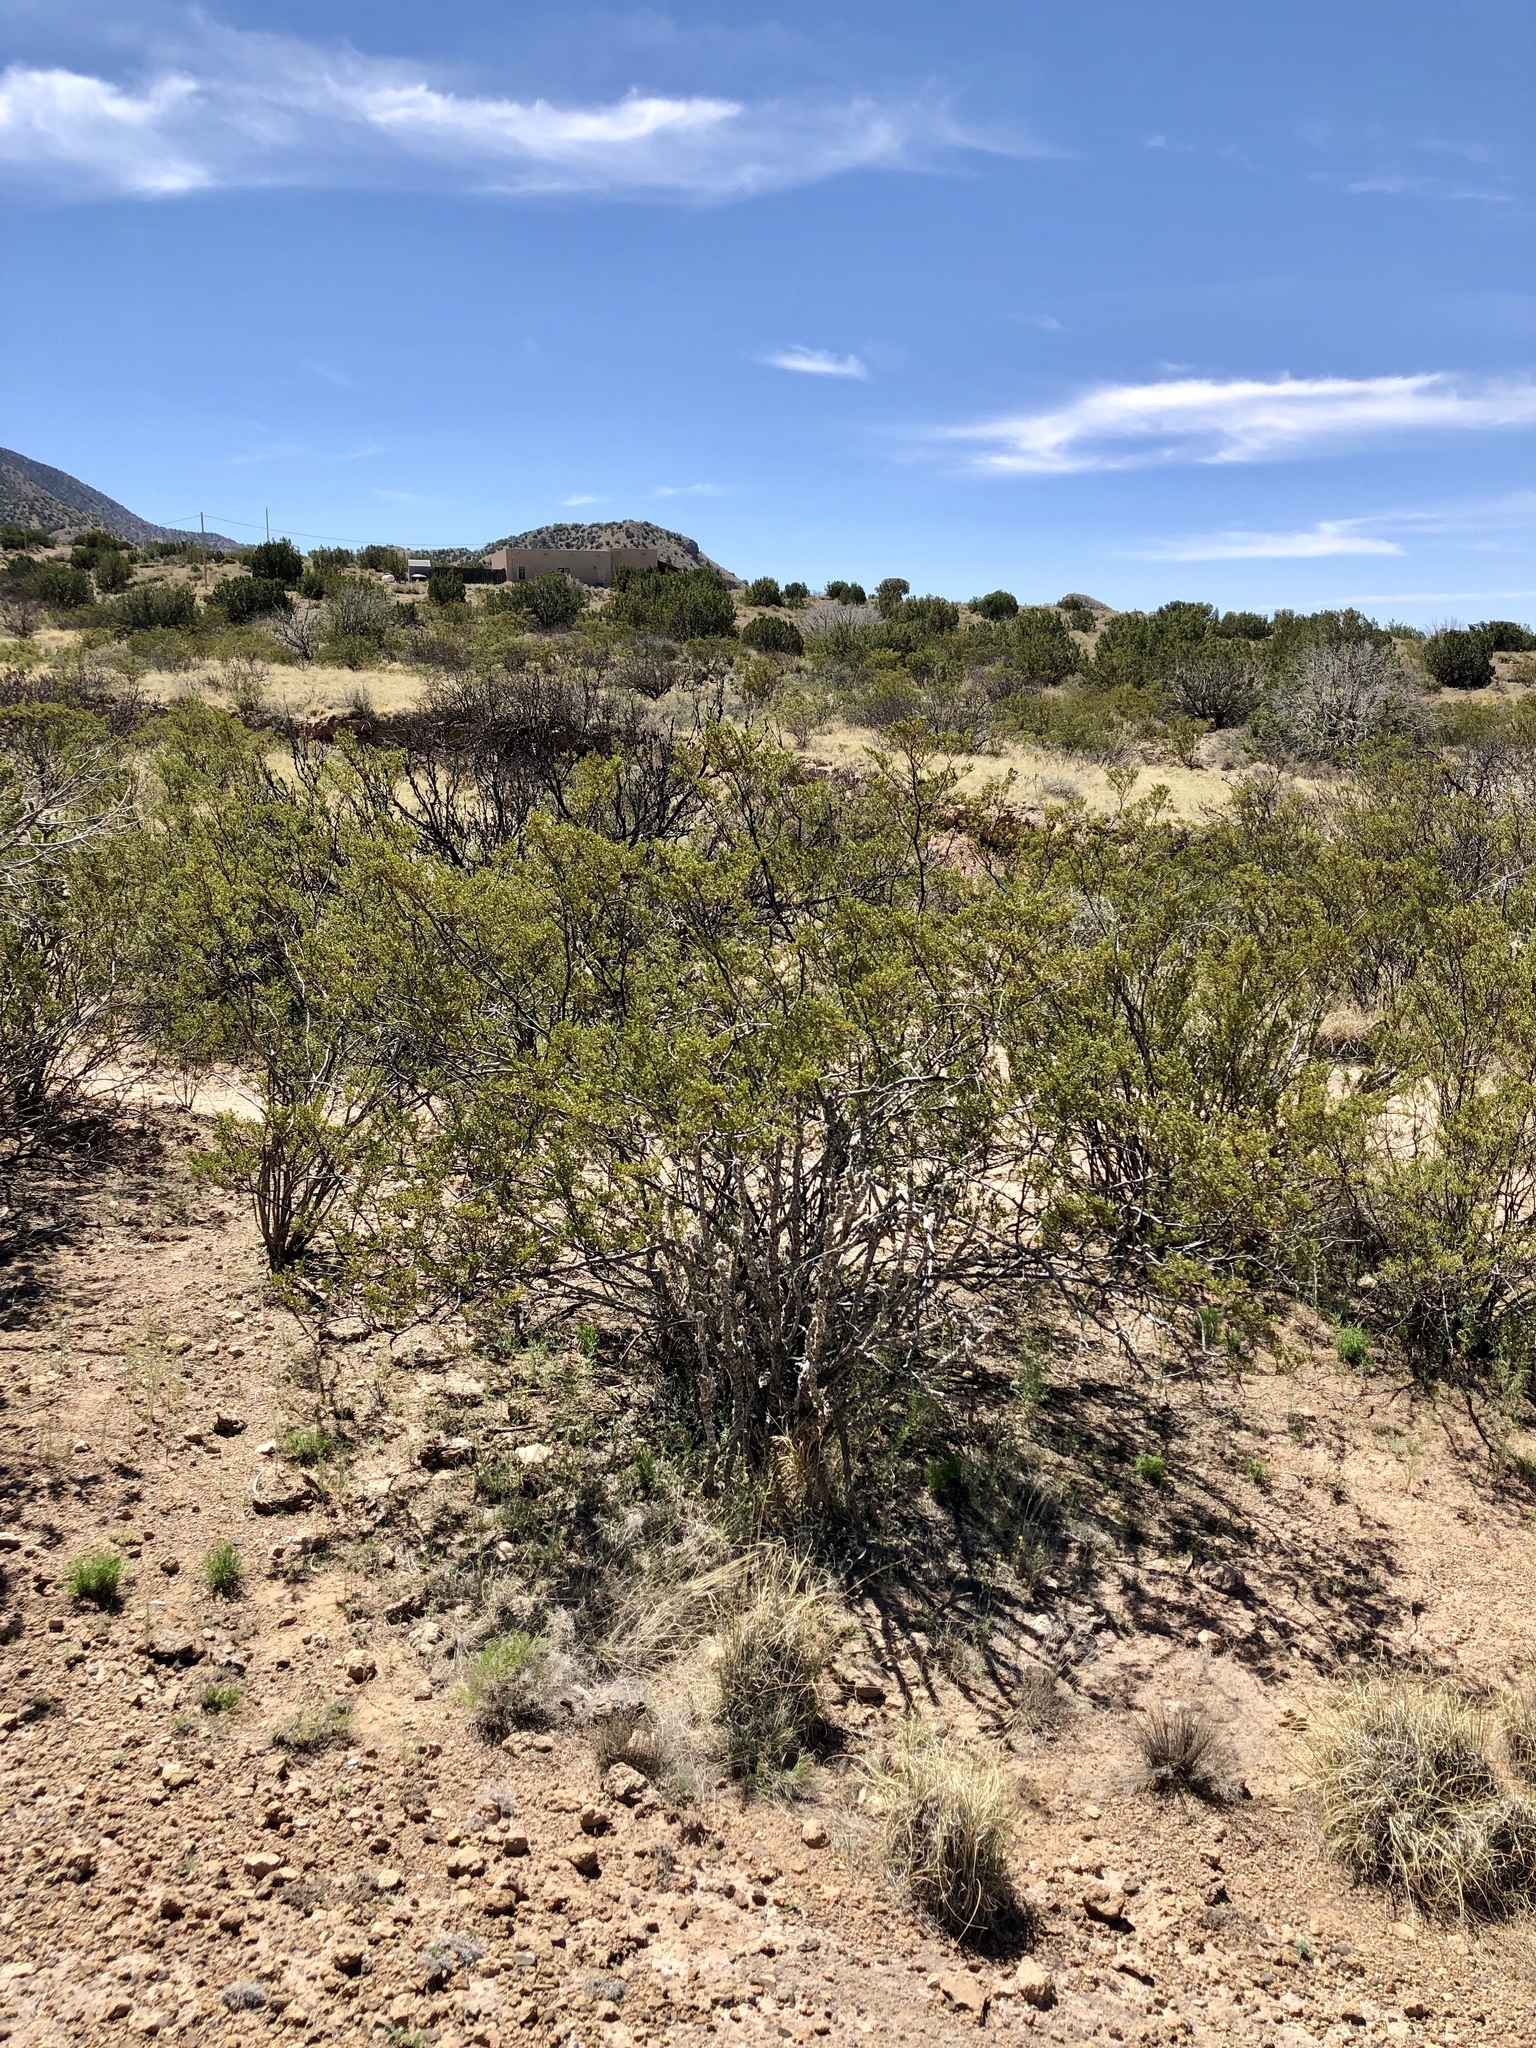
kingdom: Plantae
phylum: Tracheophyta
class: Magnoliopsida
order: Zygophyllales
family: Zygophyllaceae
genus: Larrea
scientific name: Larrea tridentata
